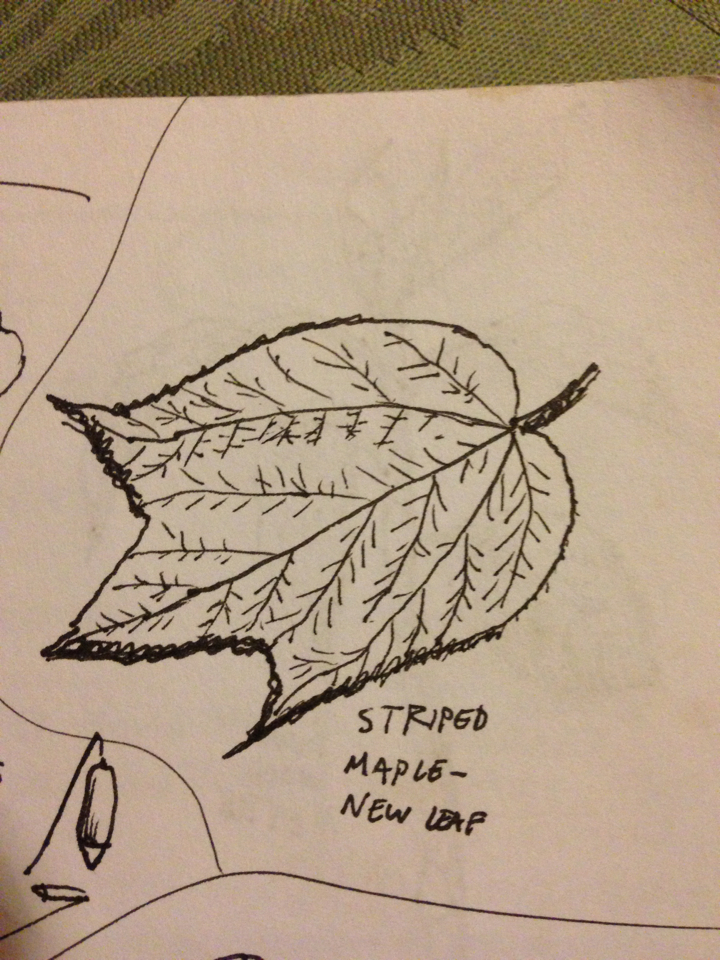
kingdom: Plantae
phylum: Tracheophyta
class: Magnoliopsida
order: Sapindales
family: Sapindaceae
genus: Acer
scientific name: Acer pensylvanicum
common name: Moosewood
